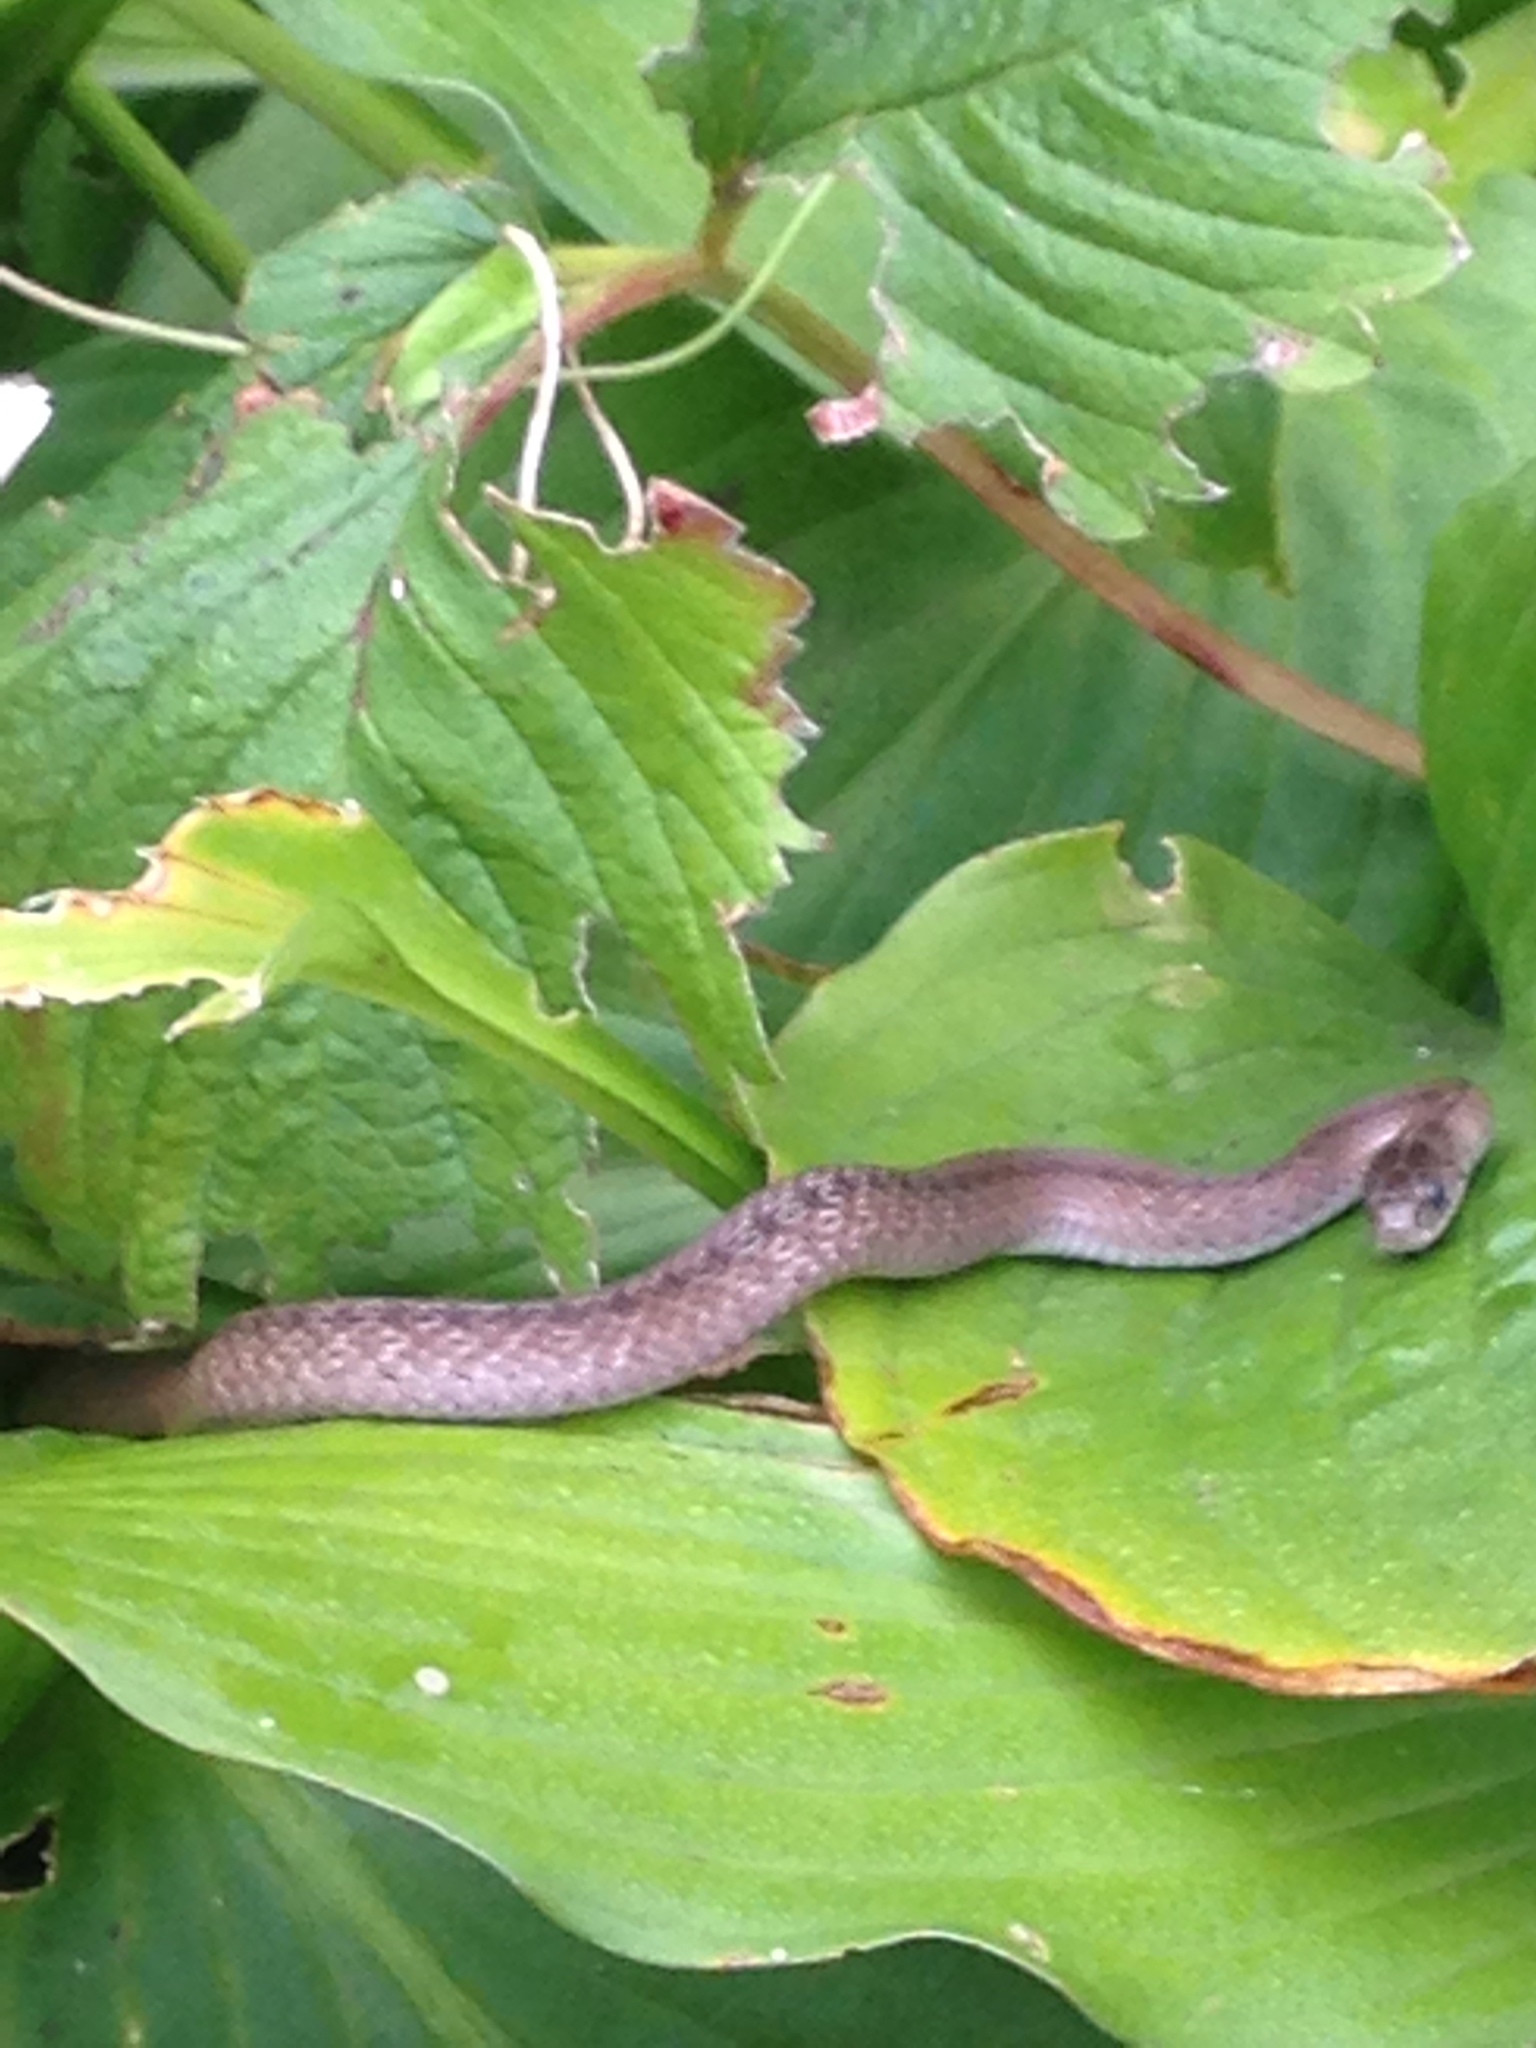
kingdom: Animalia
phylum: Chordata
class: Squamata
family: Colubridae
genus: Storeria
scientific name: Storeria dekayi
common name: (dekay’s) brown snake
